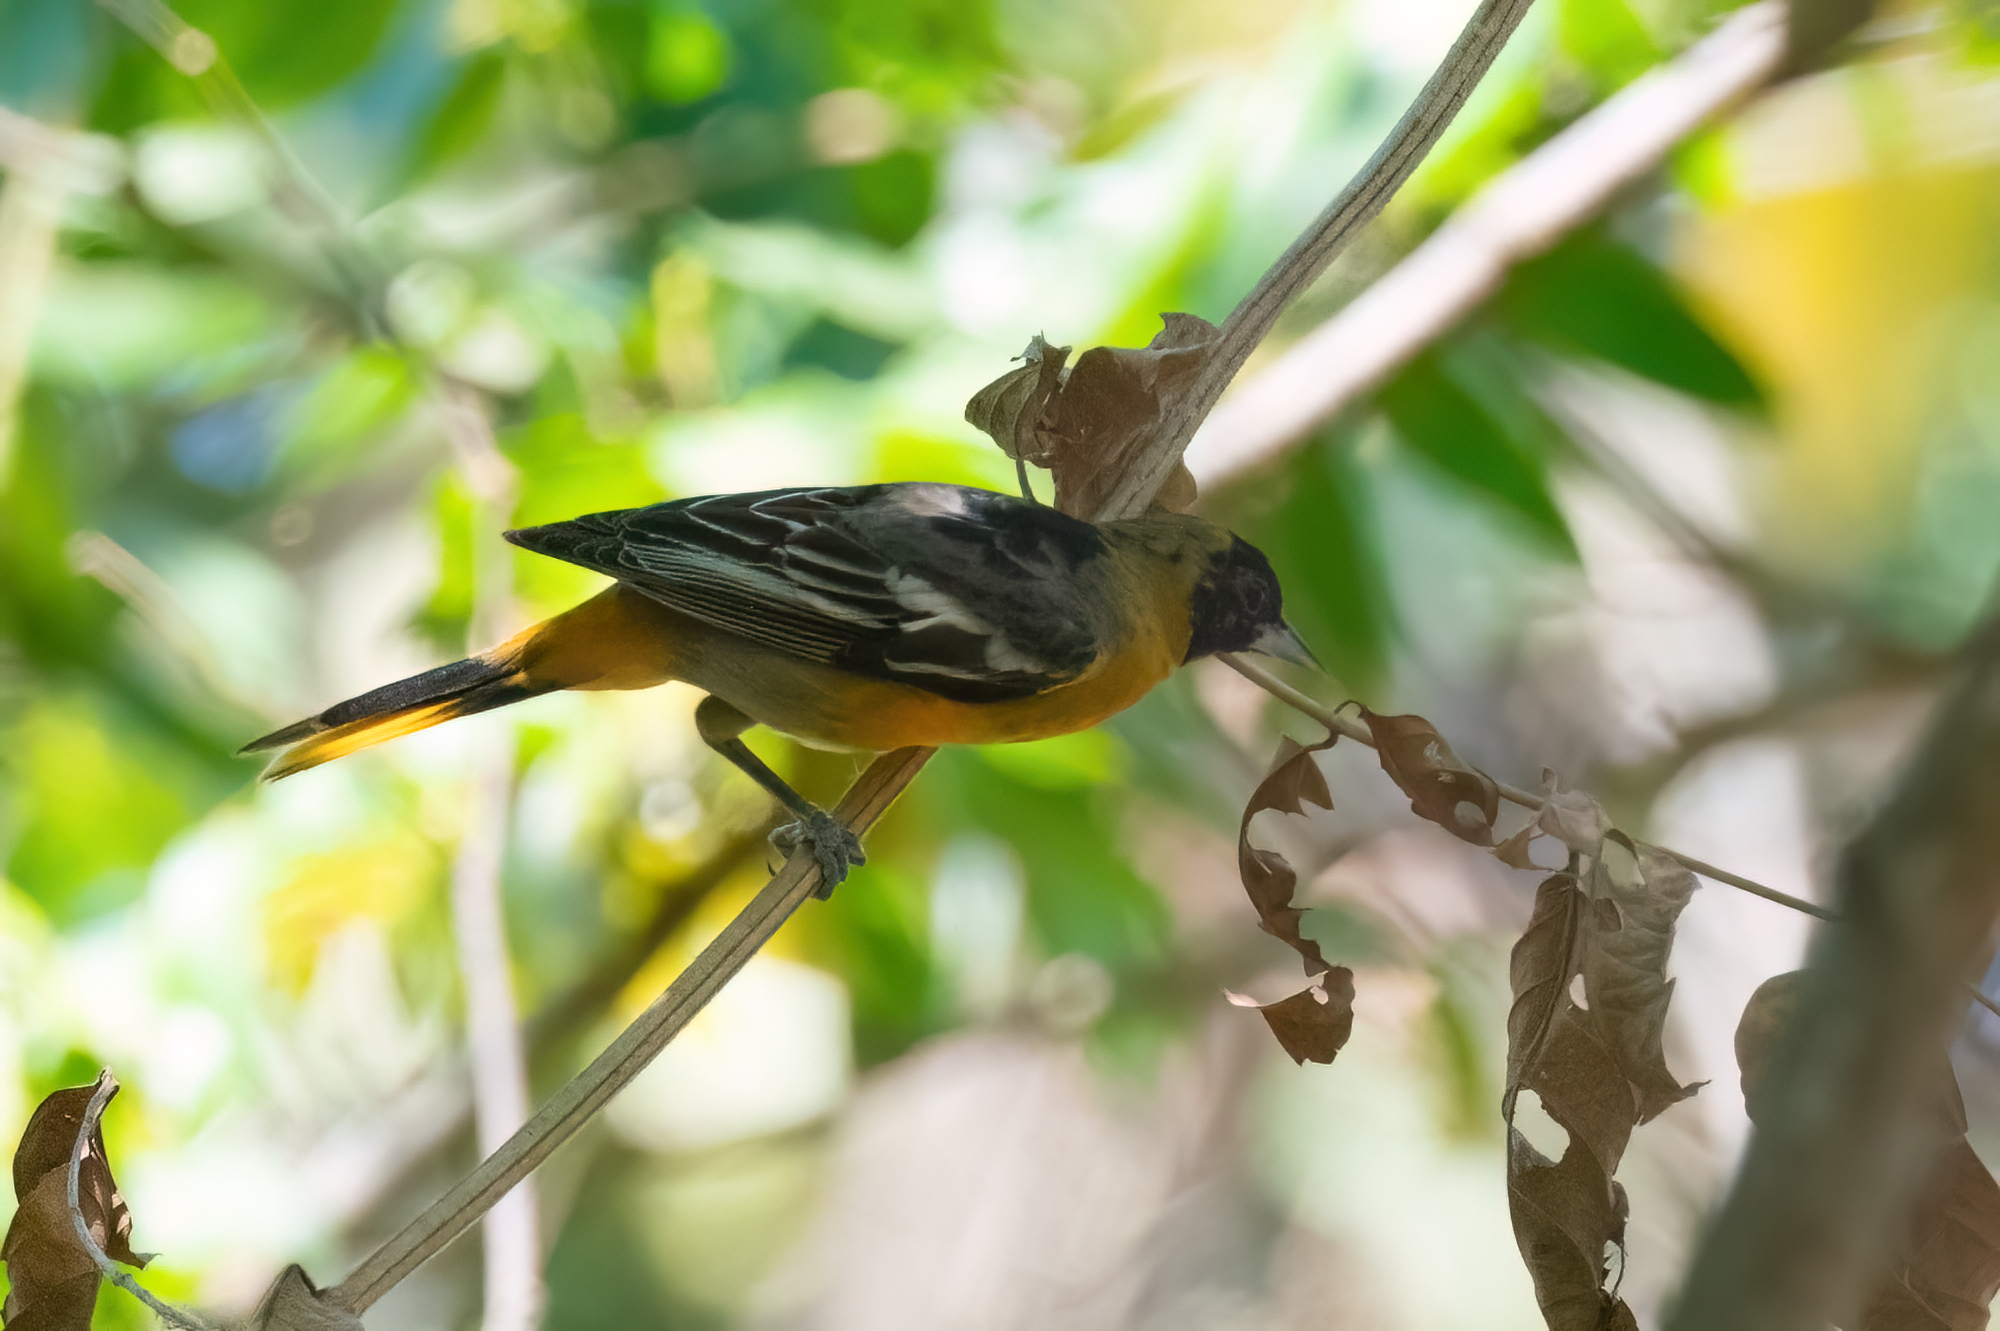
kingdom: Animalia
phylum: Chordata
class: Aves
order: Passeriformes
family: Icteridae
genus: Icterus
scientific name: Icterus galbula
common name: Baltimore oriole
